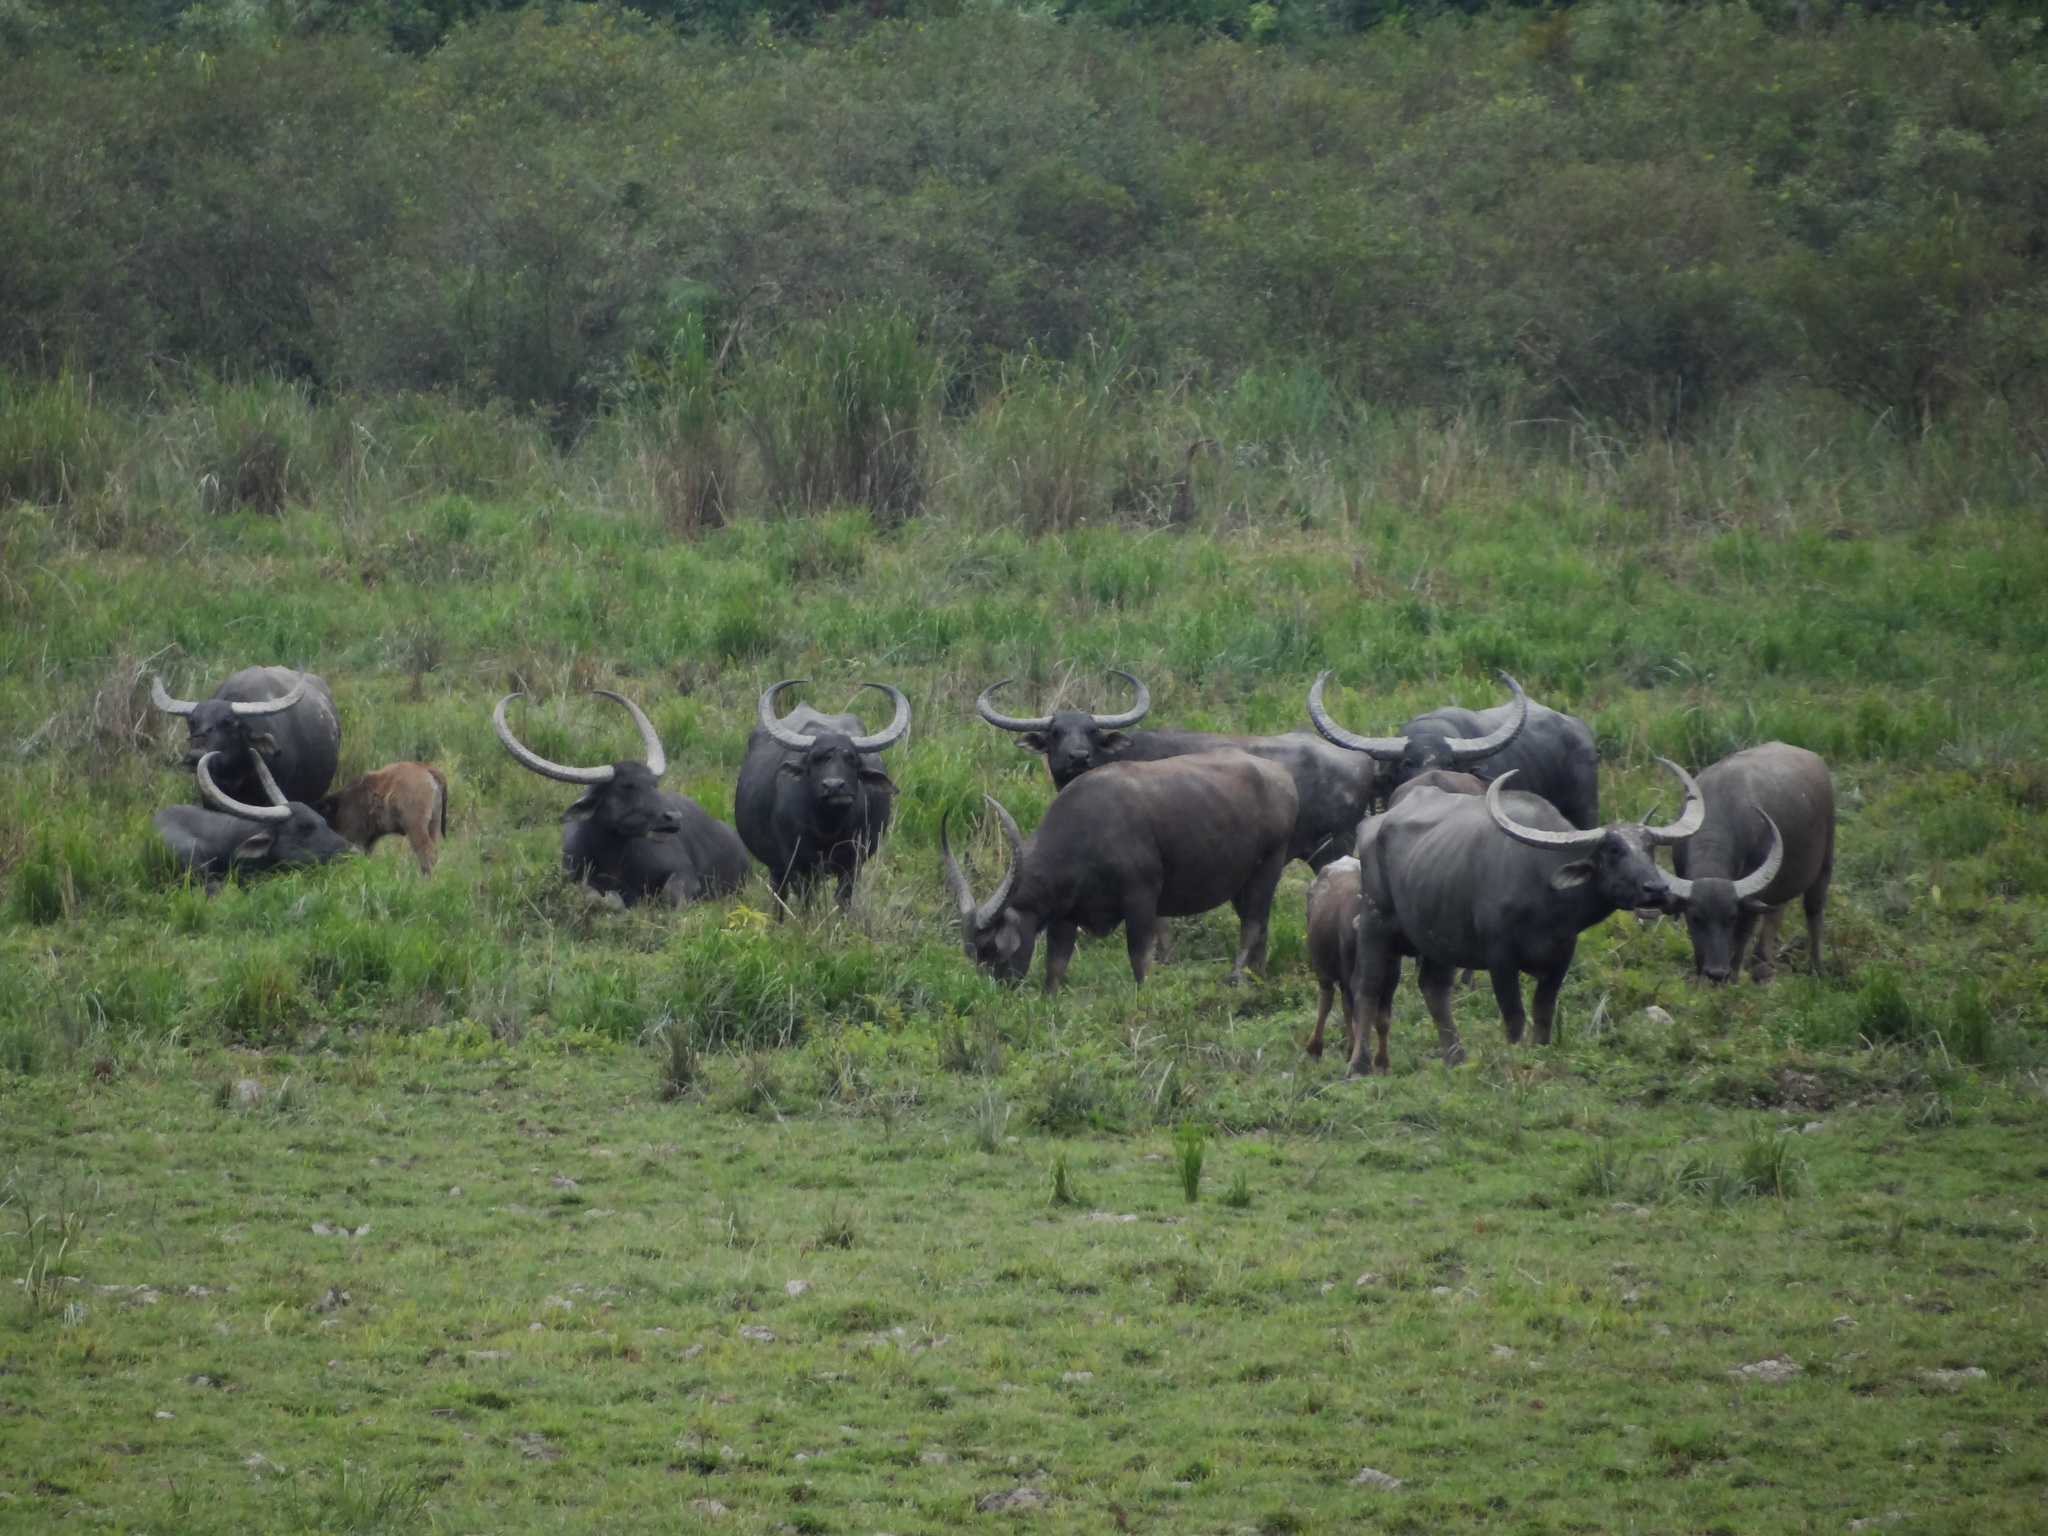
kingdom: Animalia
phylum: Chordata
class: Mammalia
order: Artiodactyla
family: Bovidae
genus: Bubalus
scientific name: Bubalus bubalis
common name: Water buffalo
